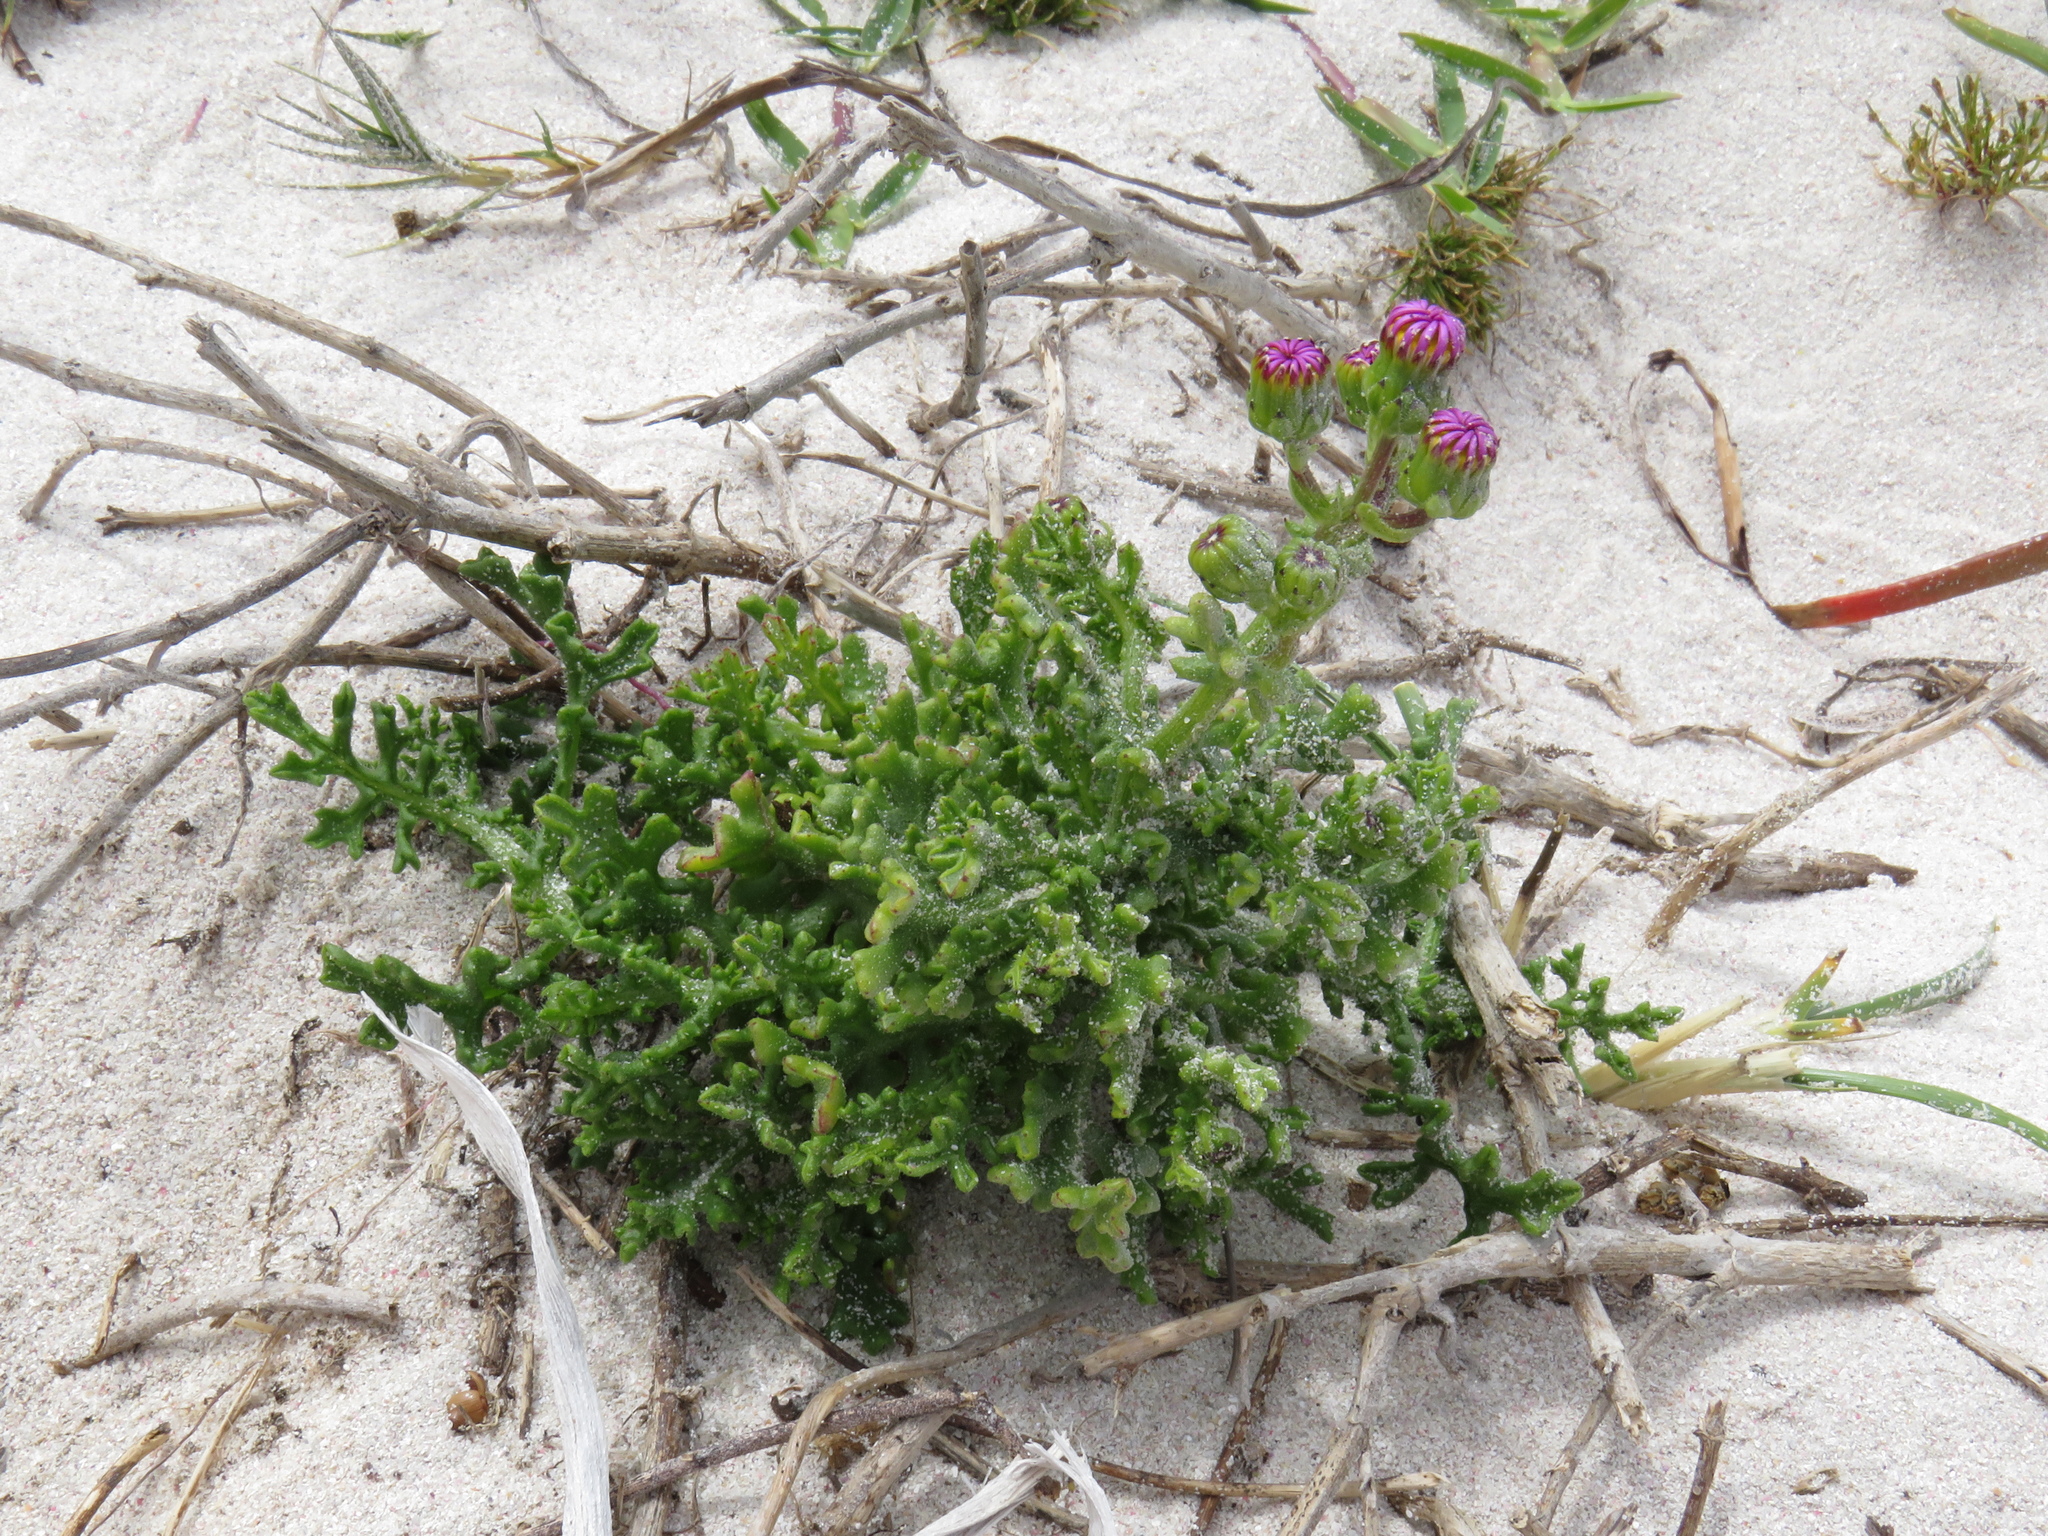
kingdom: Plantae
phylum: Tracheophyta
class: Magnoliopsida
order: Asterales
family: Asteraceae
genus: Senecio
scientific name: Senecio elegans
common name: Purple groundsel
